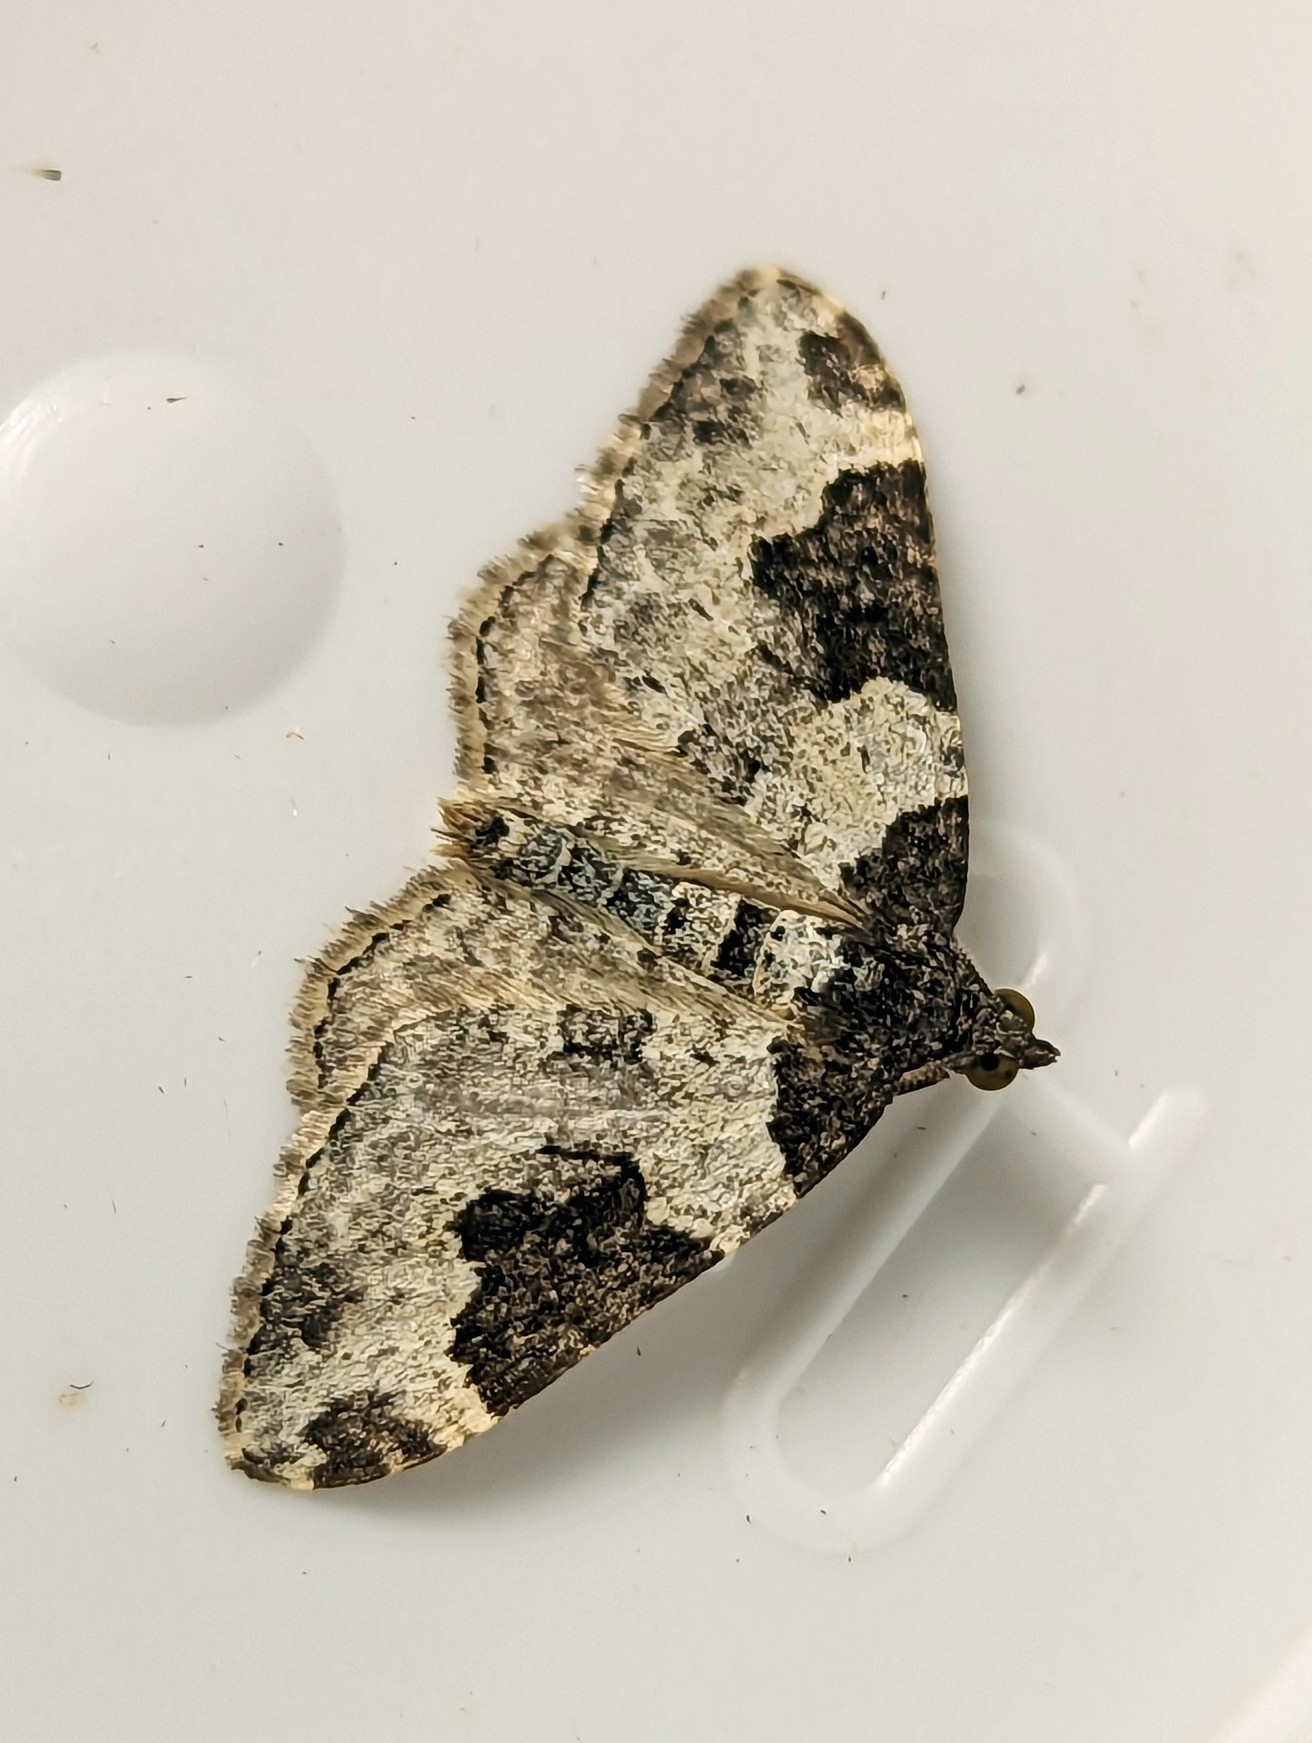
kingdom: Animalia
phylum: Arthropoda
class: Insecta
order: Lepidoptera
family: Geometridae
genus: Xanthorhoe
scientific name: Xanthorhoe fluctuata
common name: Garden carpet
